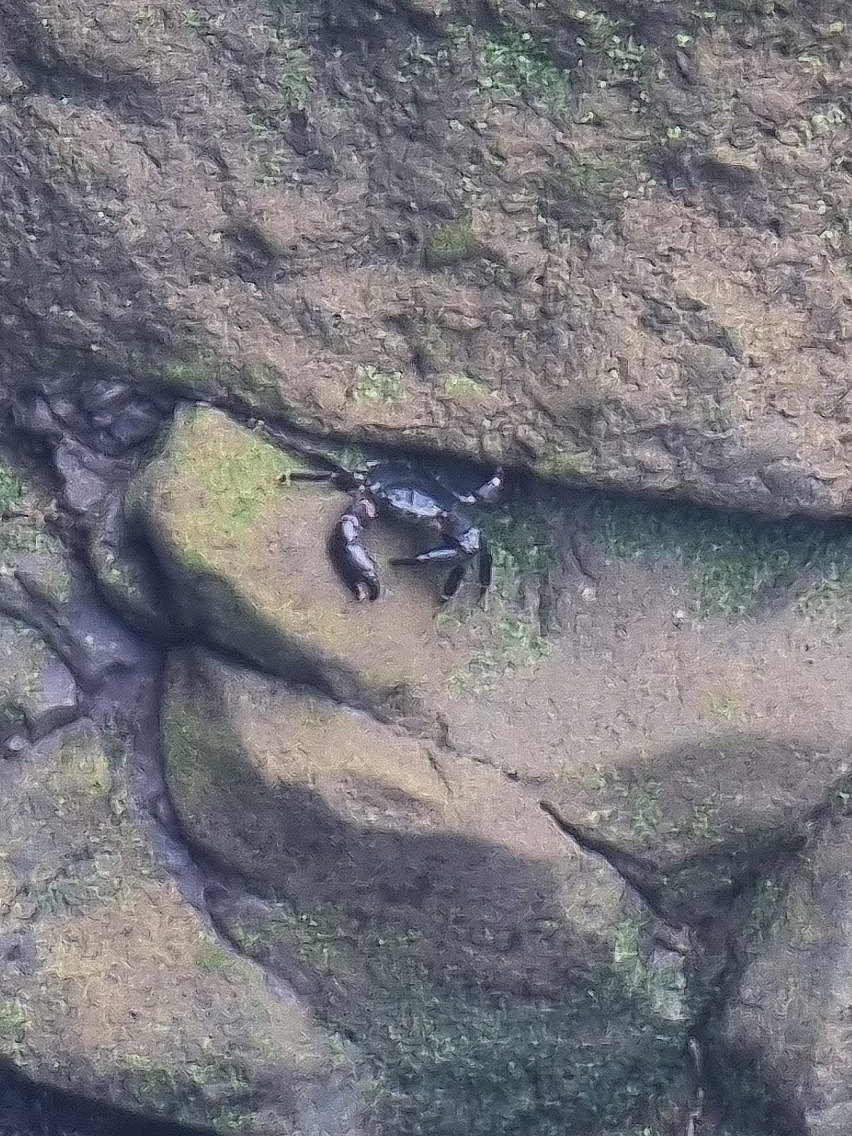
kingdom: Animalia
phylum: Arthropoda
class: Malacostraca
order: Decapoda
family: Grapsidae
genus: Grapsus
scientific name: Grapsus adscensionis
